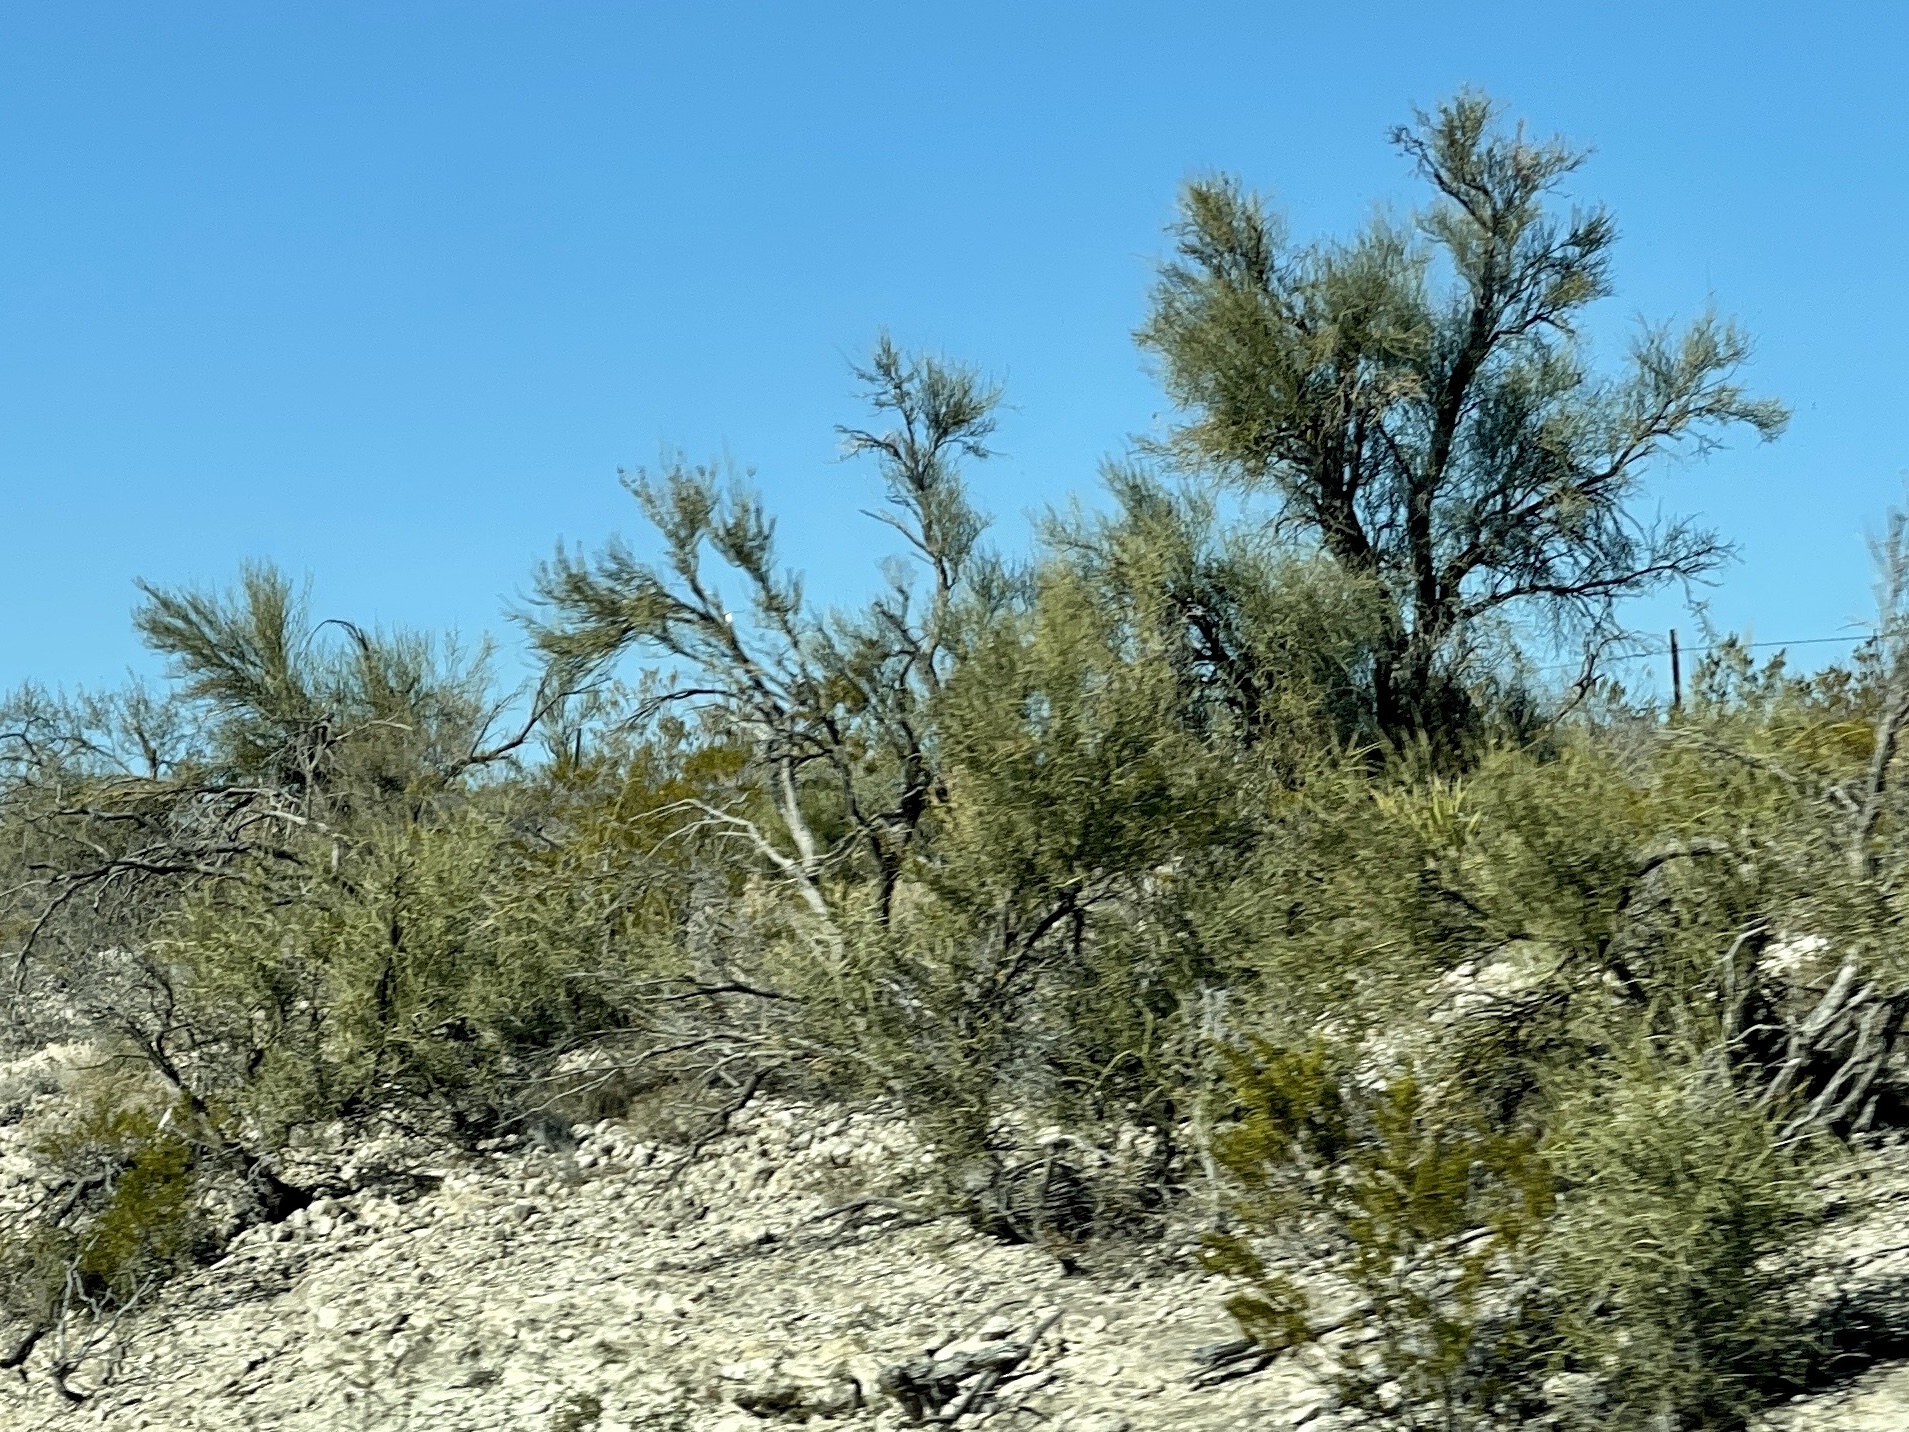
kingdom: Plantae
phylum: Tracheophyta
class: Magnoliopsida
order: Celastrales
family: Celastraceae
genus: Canotia
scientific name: Canotia holacantha
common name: Crucifixion thorns
